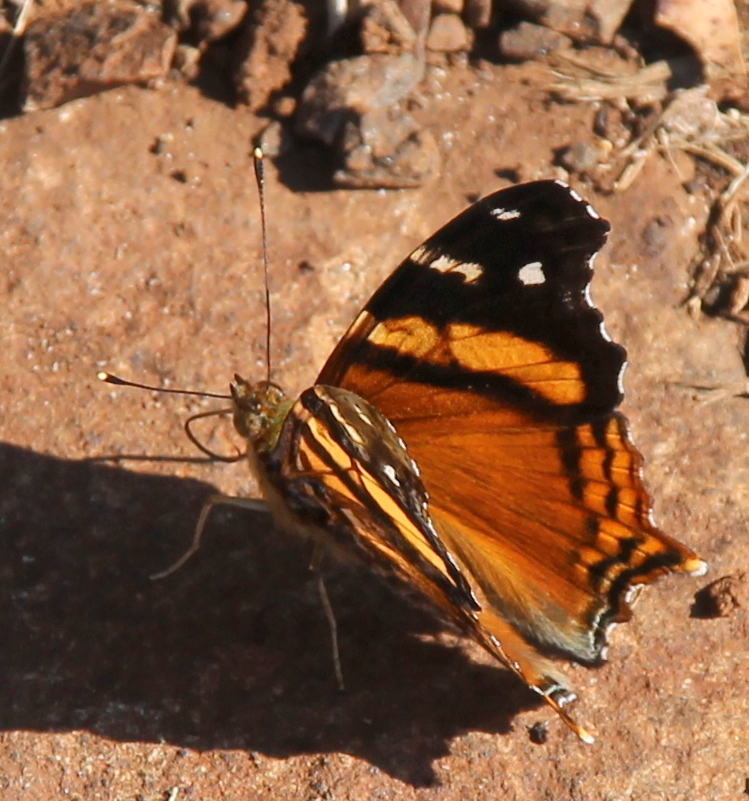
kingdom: Animalia
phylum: Arthropoda
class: Insecta
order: Lepidoptera
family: Nymphalidae
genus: Hypanartia
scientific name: Hypanartia bella
